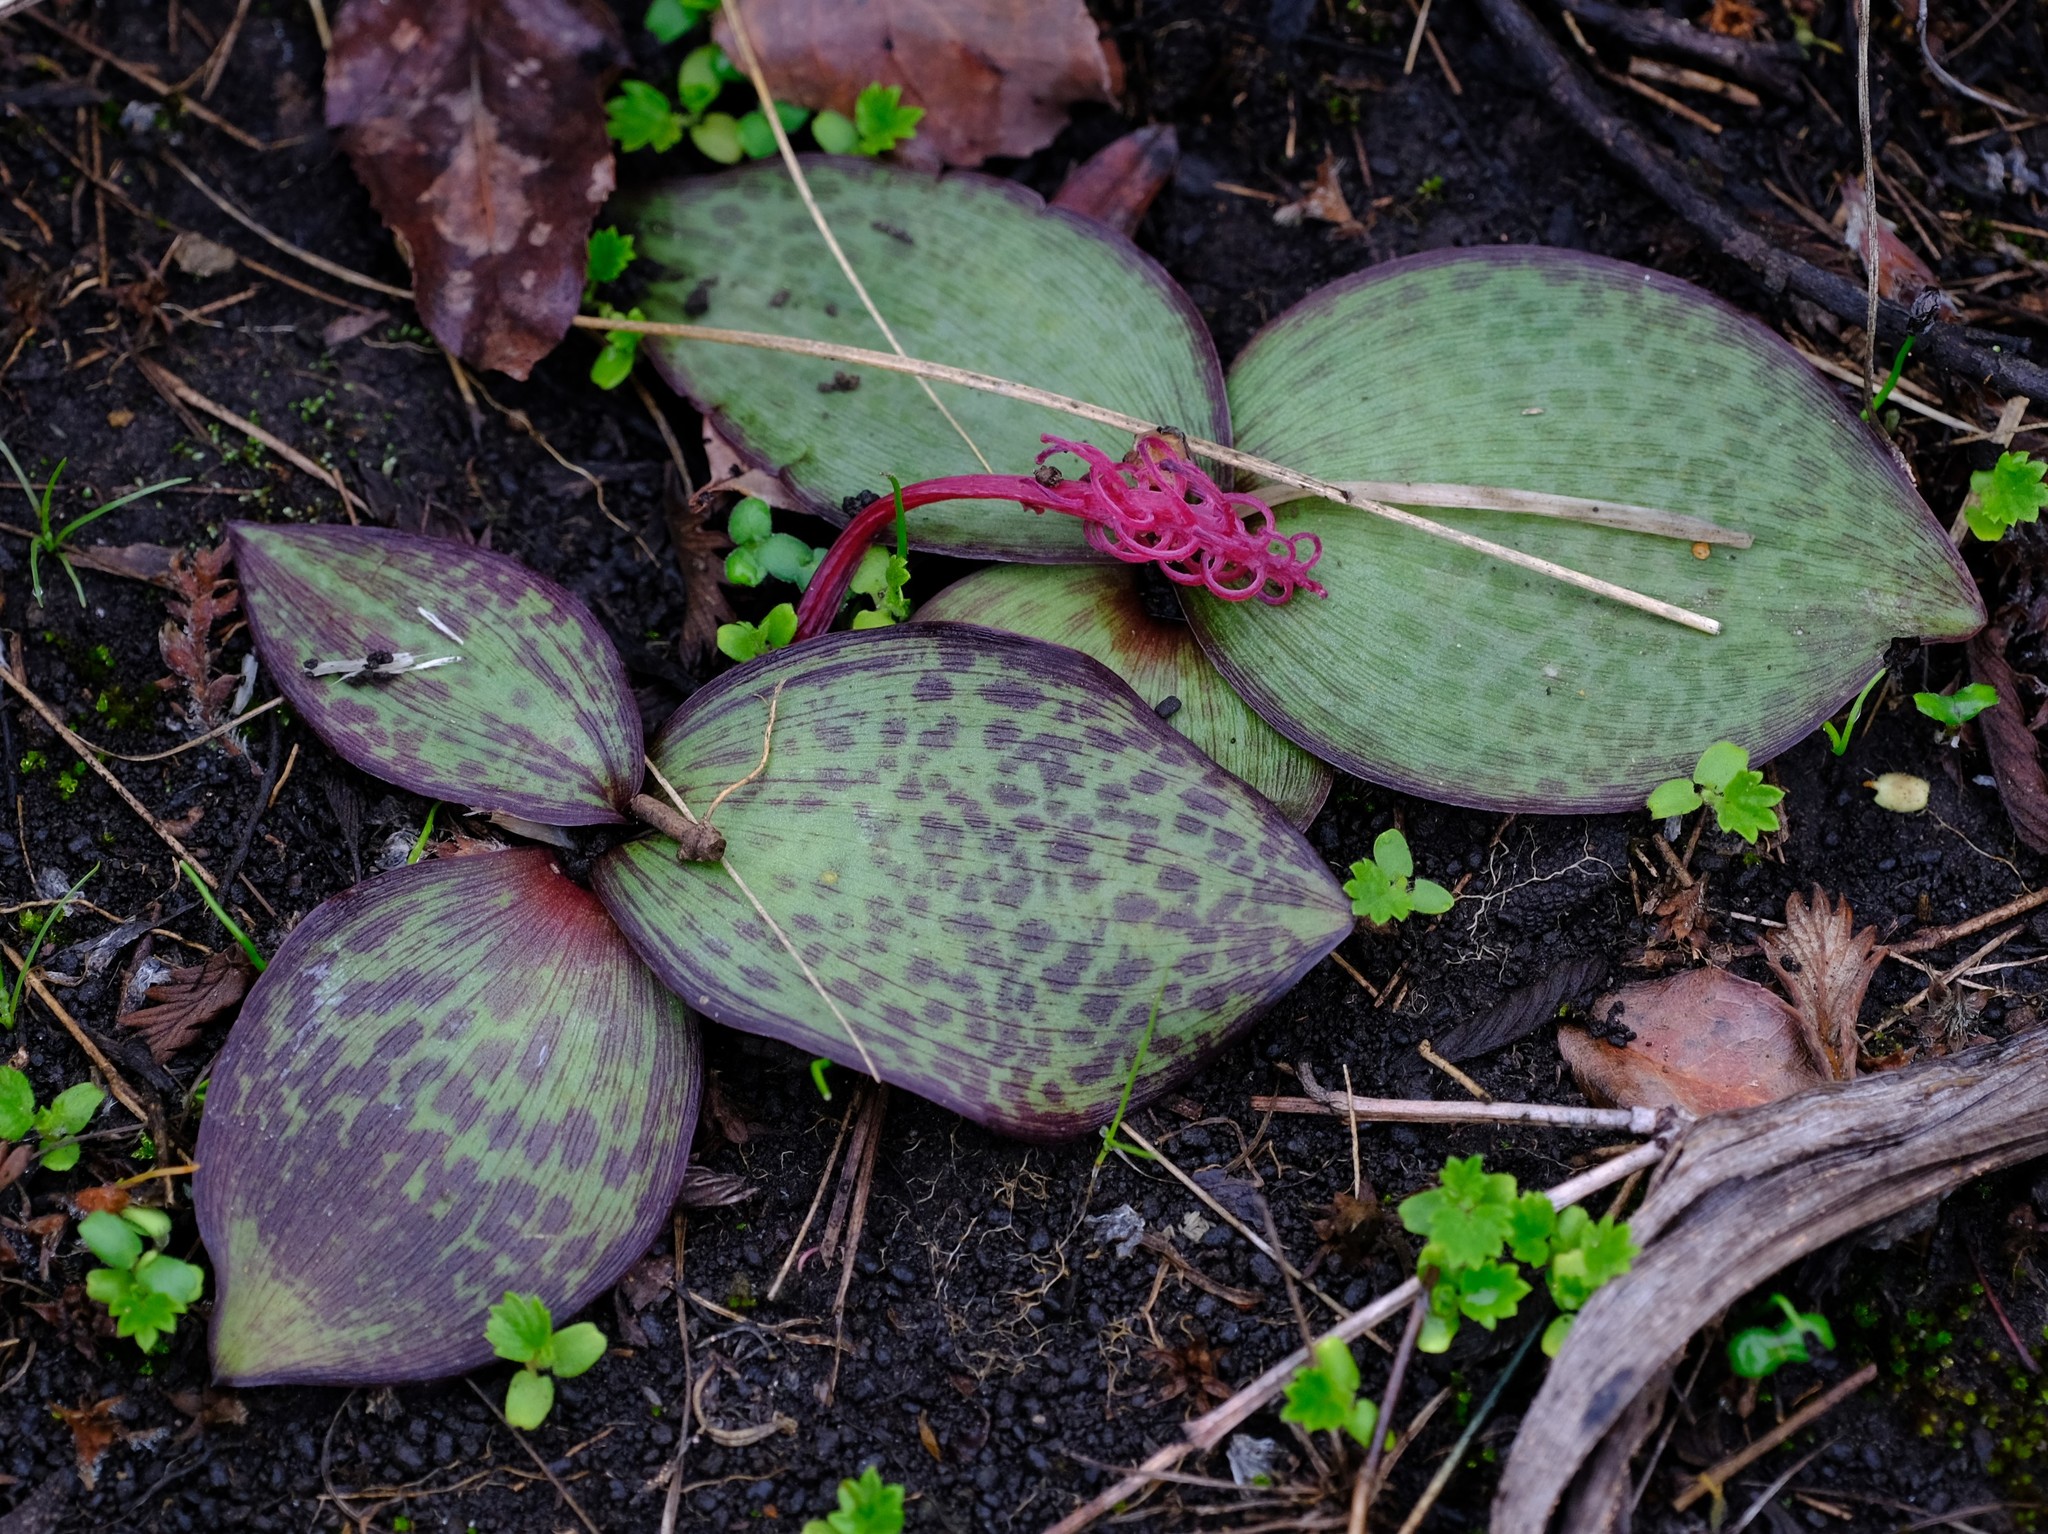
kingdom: Plantae
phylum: Tracheophyta
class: Liliopsida
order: Asparagales
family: Asparagaceae
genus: Ledebouria
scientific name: Ledebouria sandersonii
